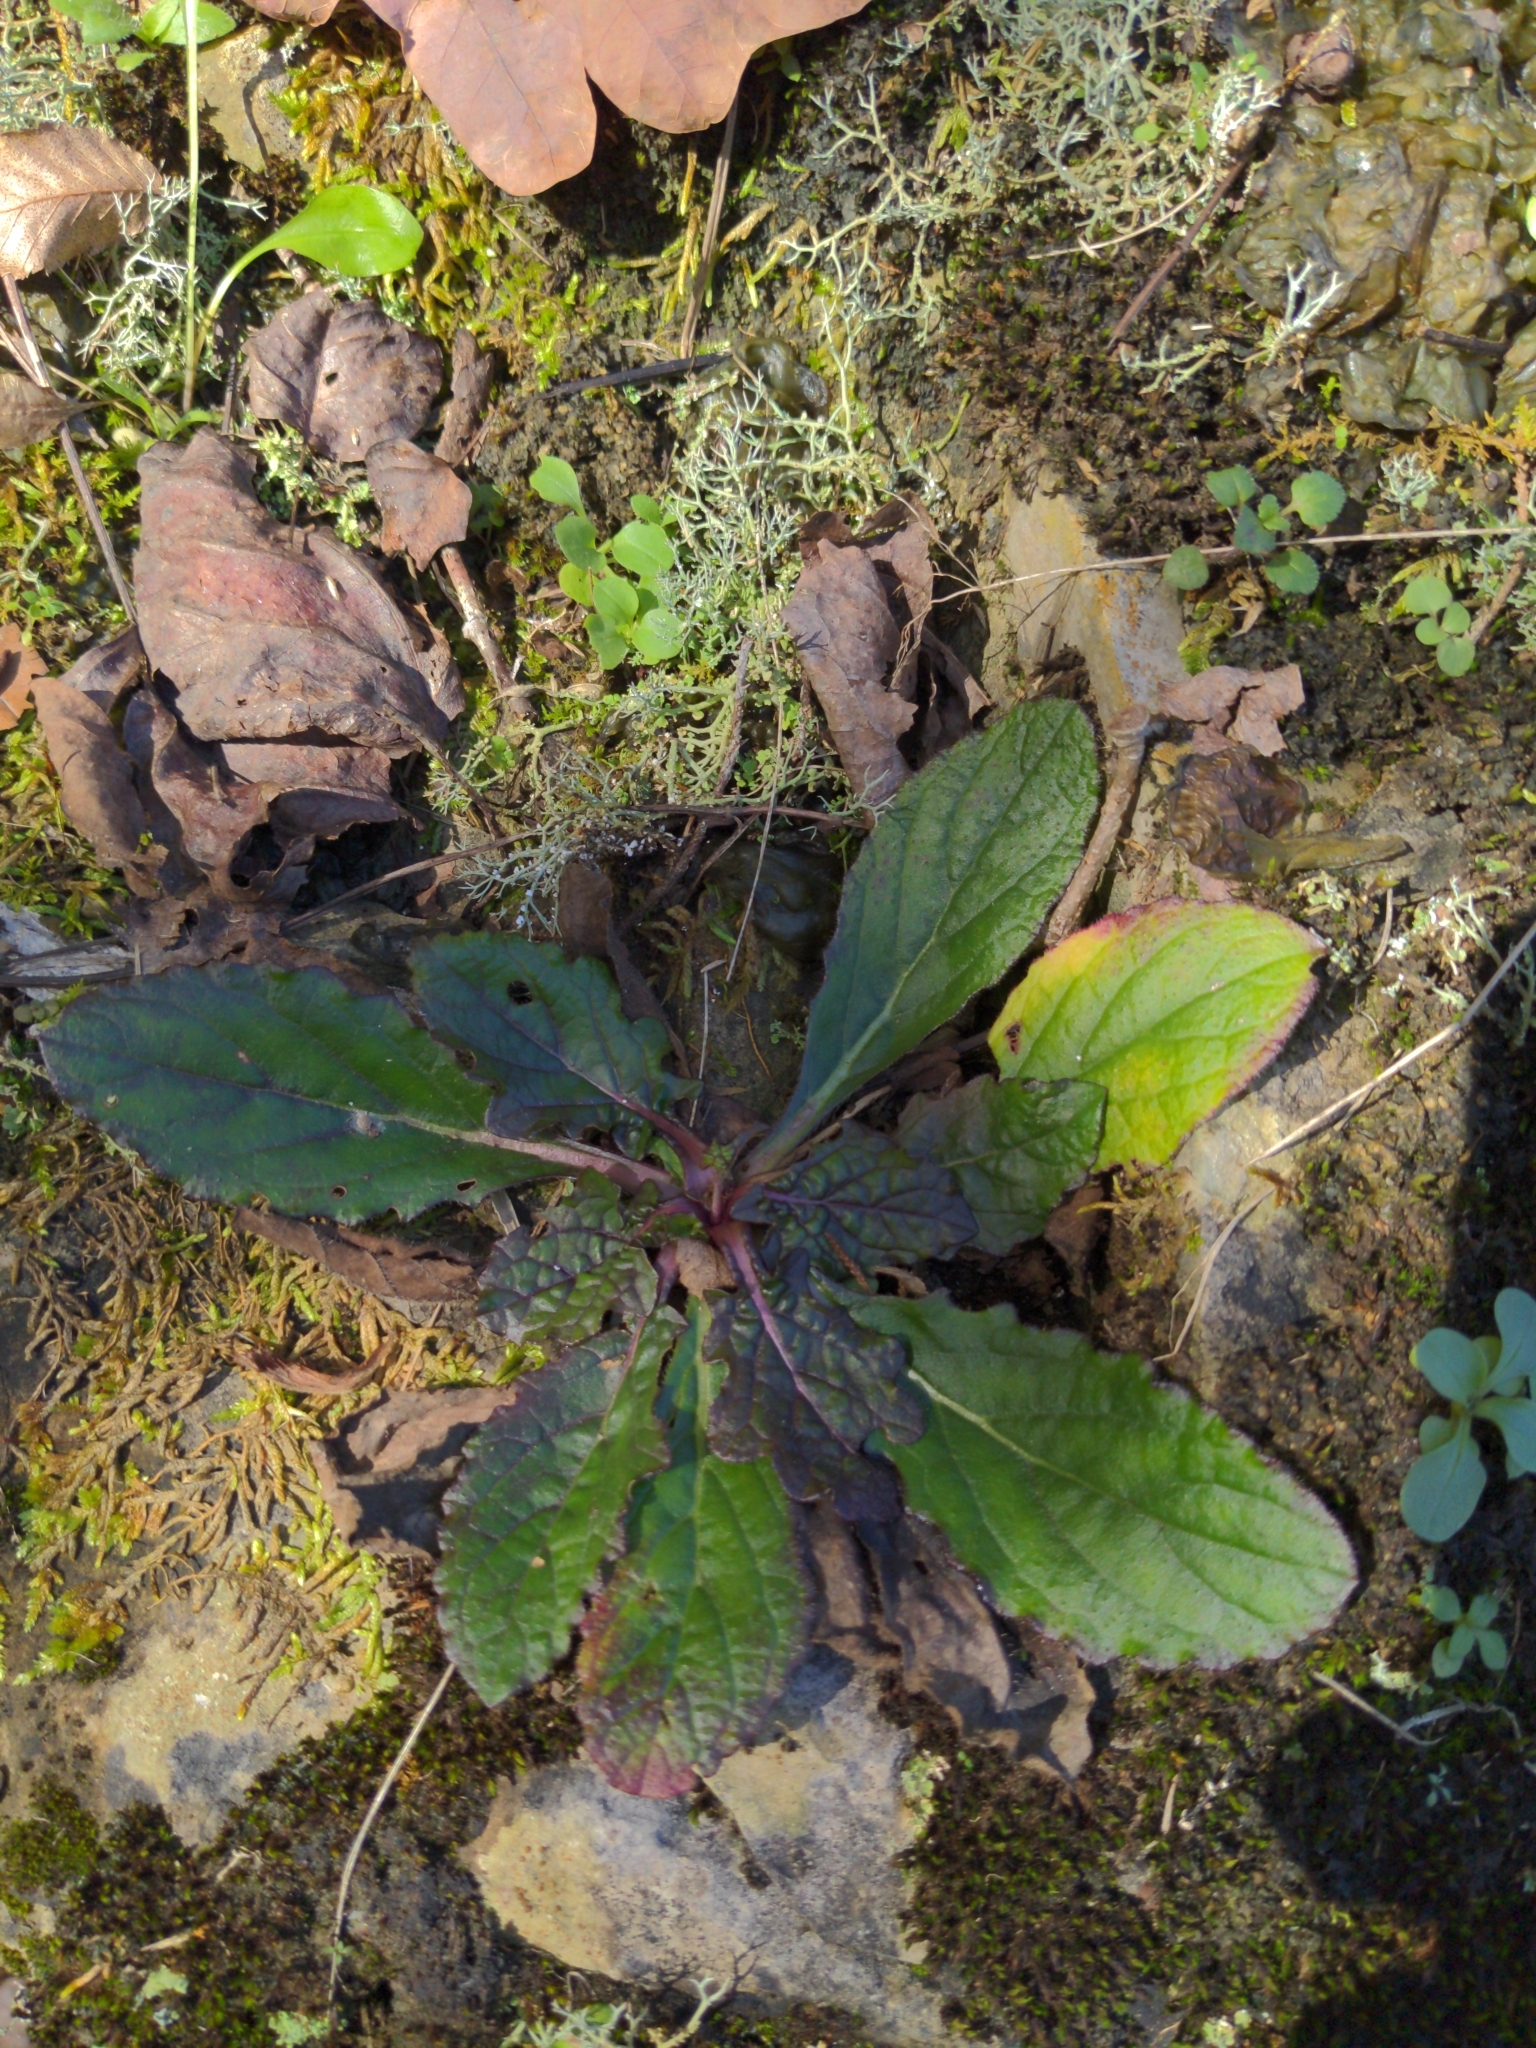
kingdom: Plantae
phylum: Tracheophyta
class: Magnoliopsida
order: Lamiales
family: Lamiaceae
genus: Salvia
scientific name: Salvia lyrata
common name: Cancerweed
